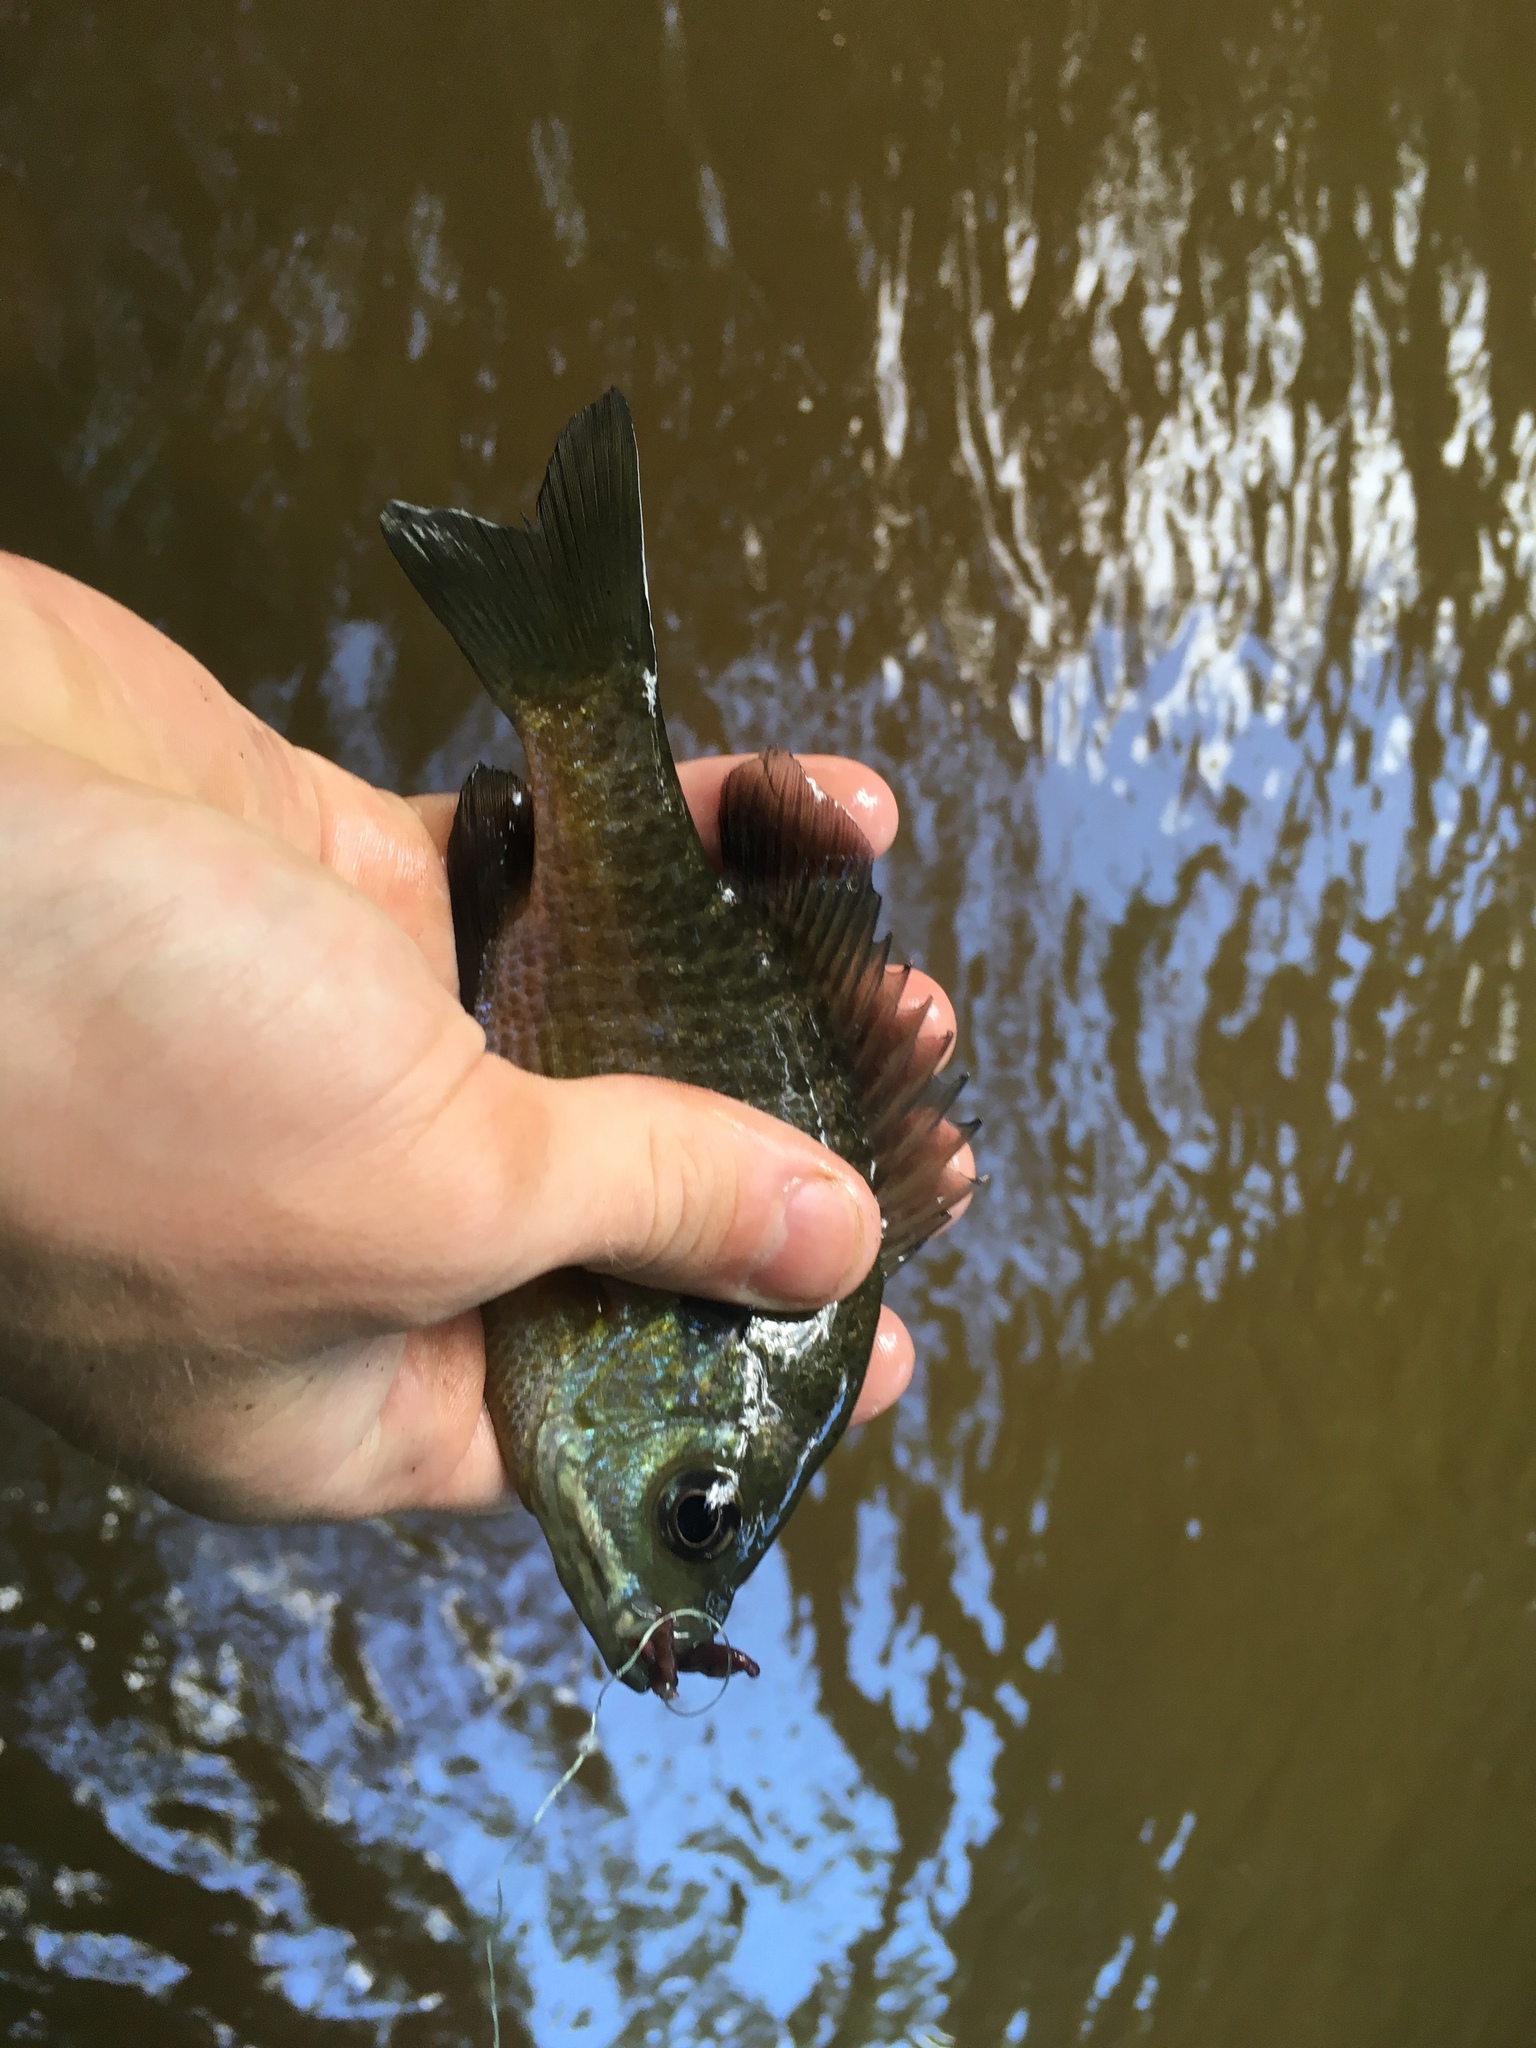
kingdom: Animalia
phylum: Chordata
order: Perciformes
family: Centrarchidae
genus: Lepomis
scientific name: Lepomis macrochirus
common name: Bluegill
